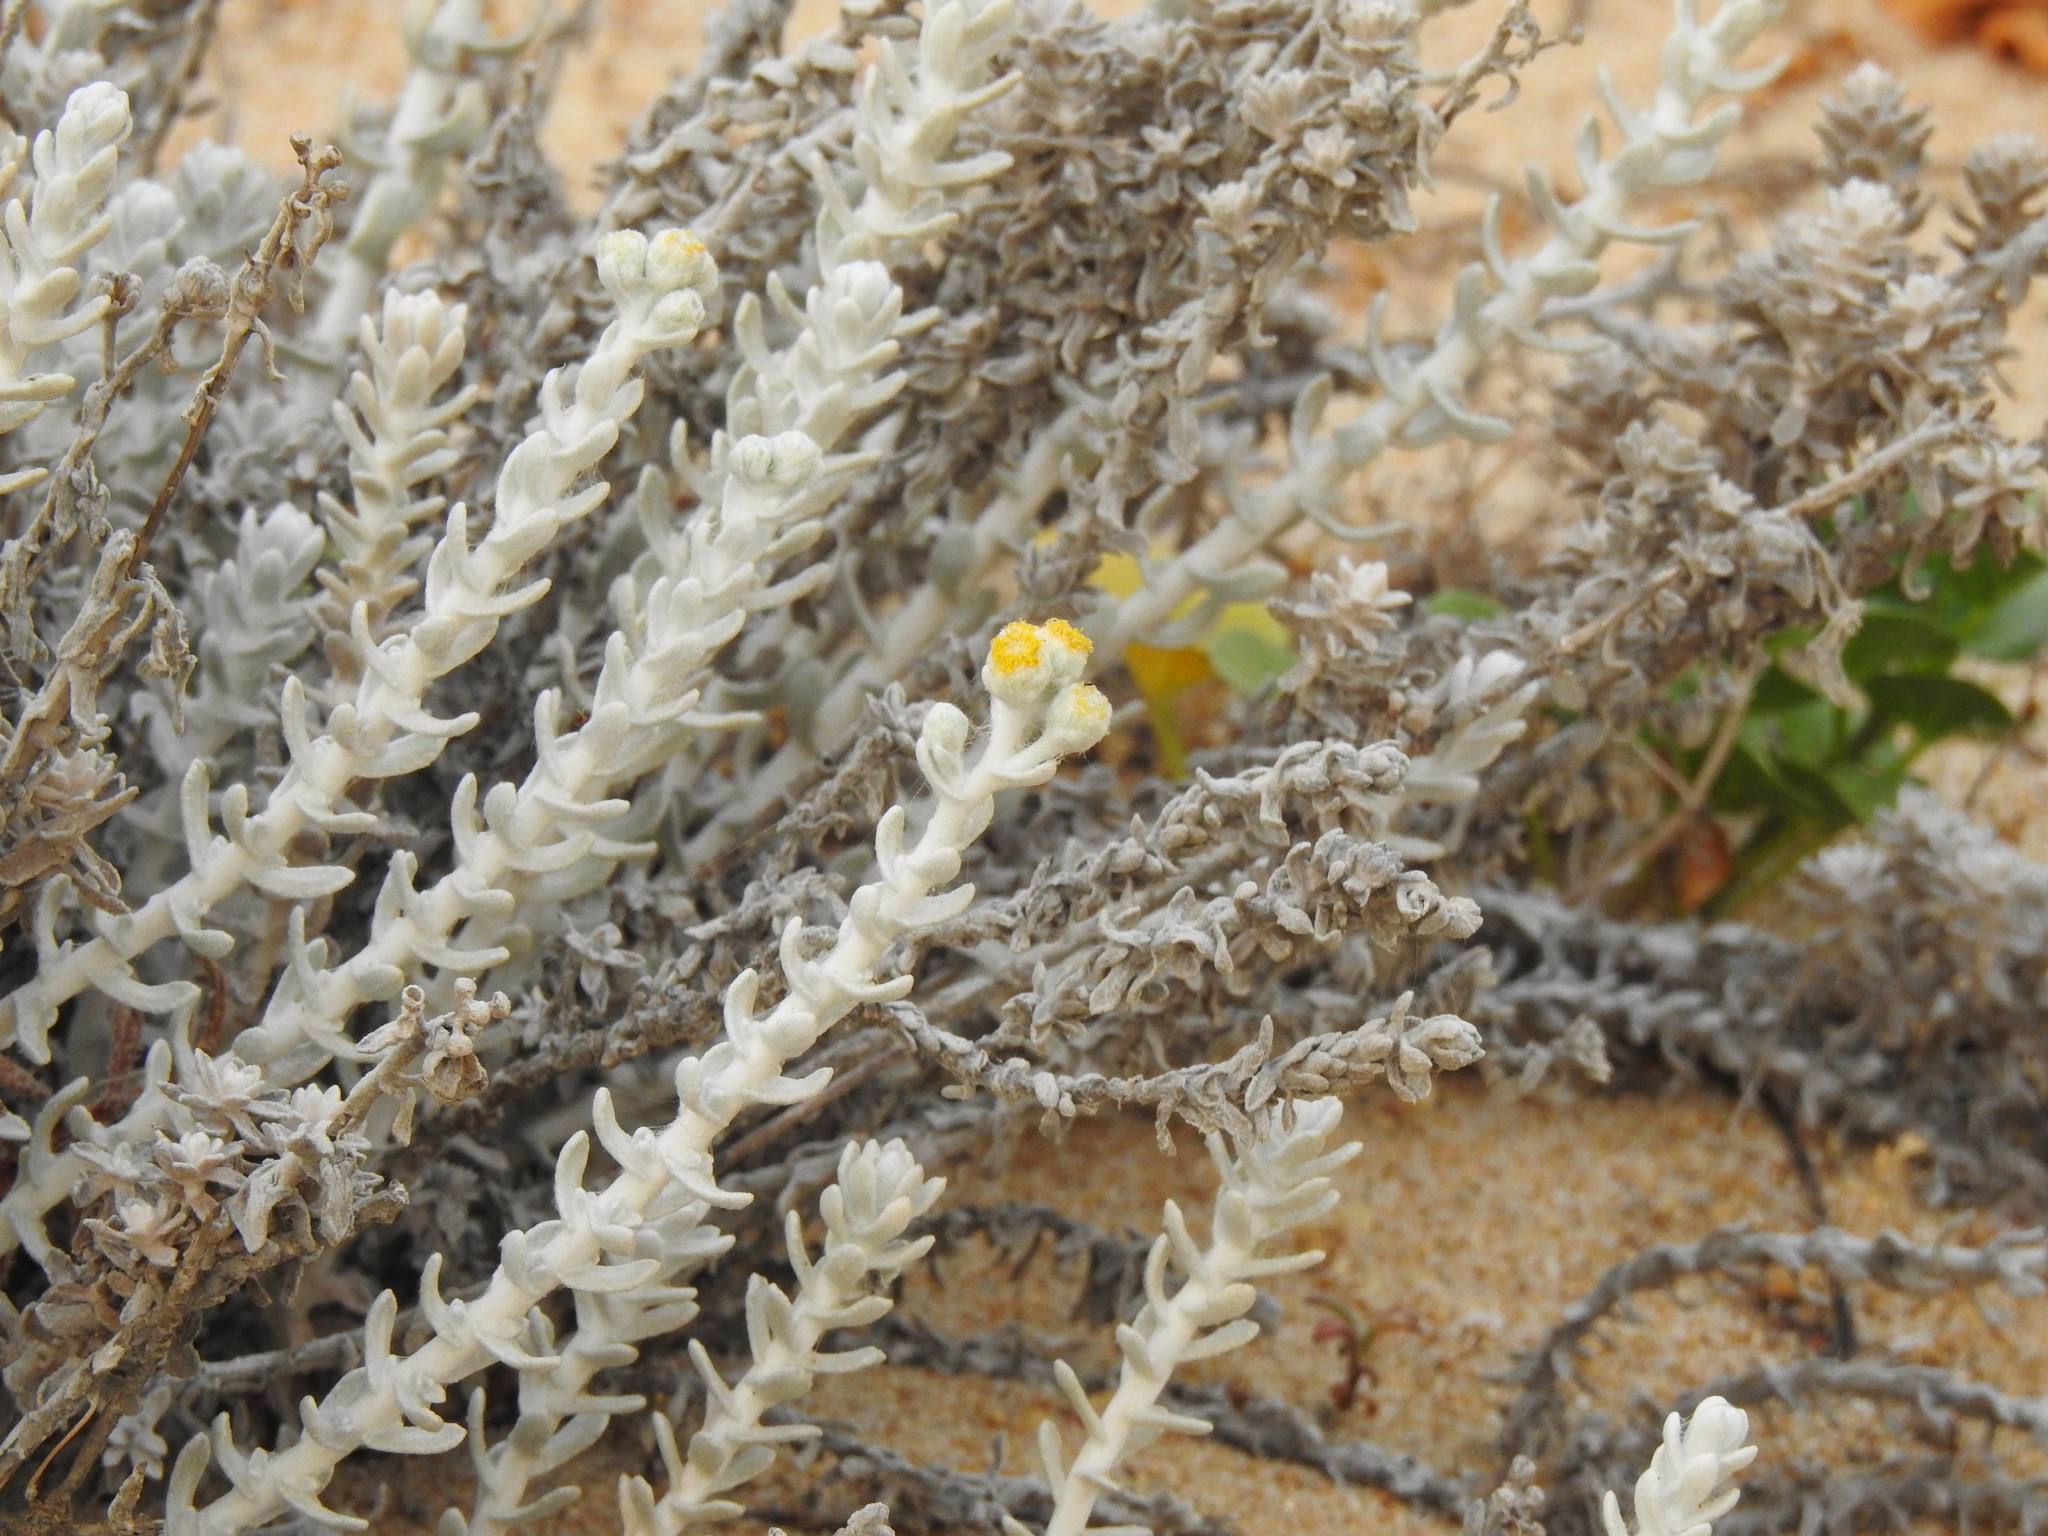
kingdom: Plantae
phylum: Tracheophyta
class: Magnoliopsida
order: Asterales
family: Asteraceae
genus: Achillea
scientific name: Achillea maritima
